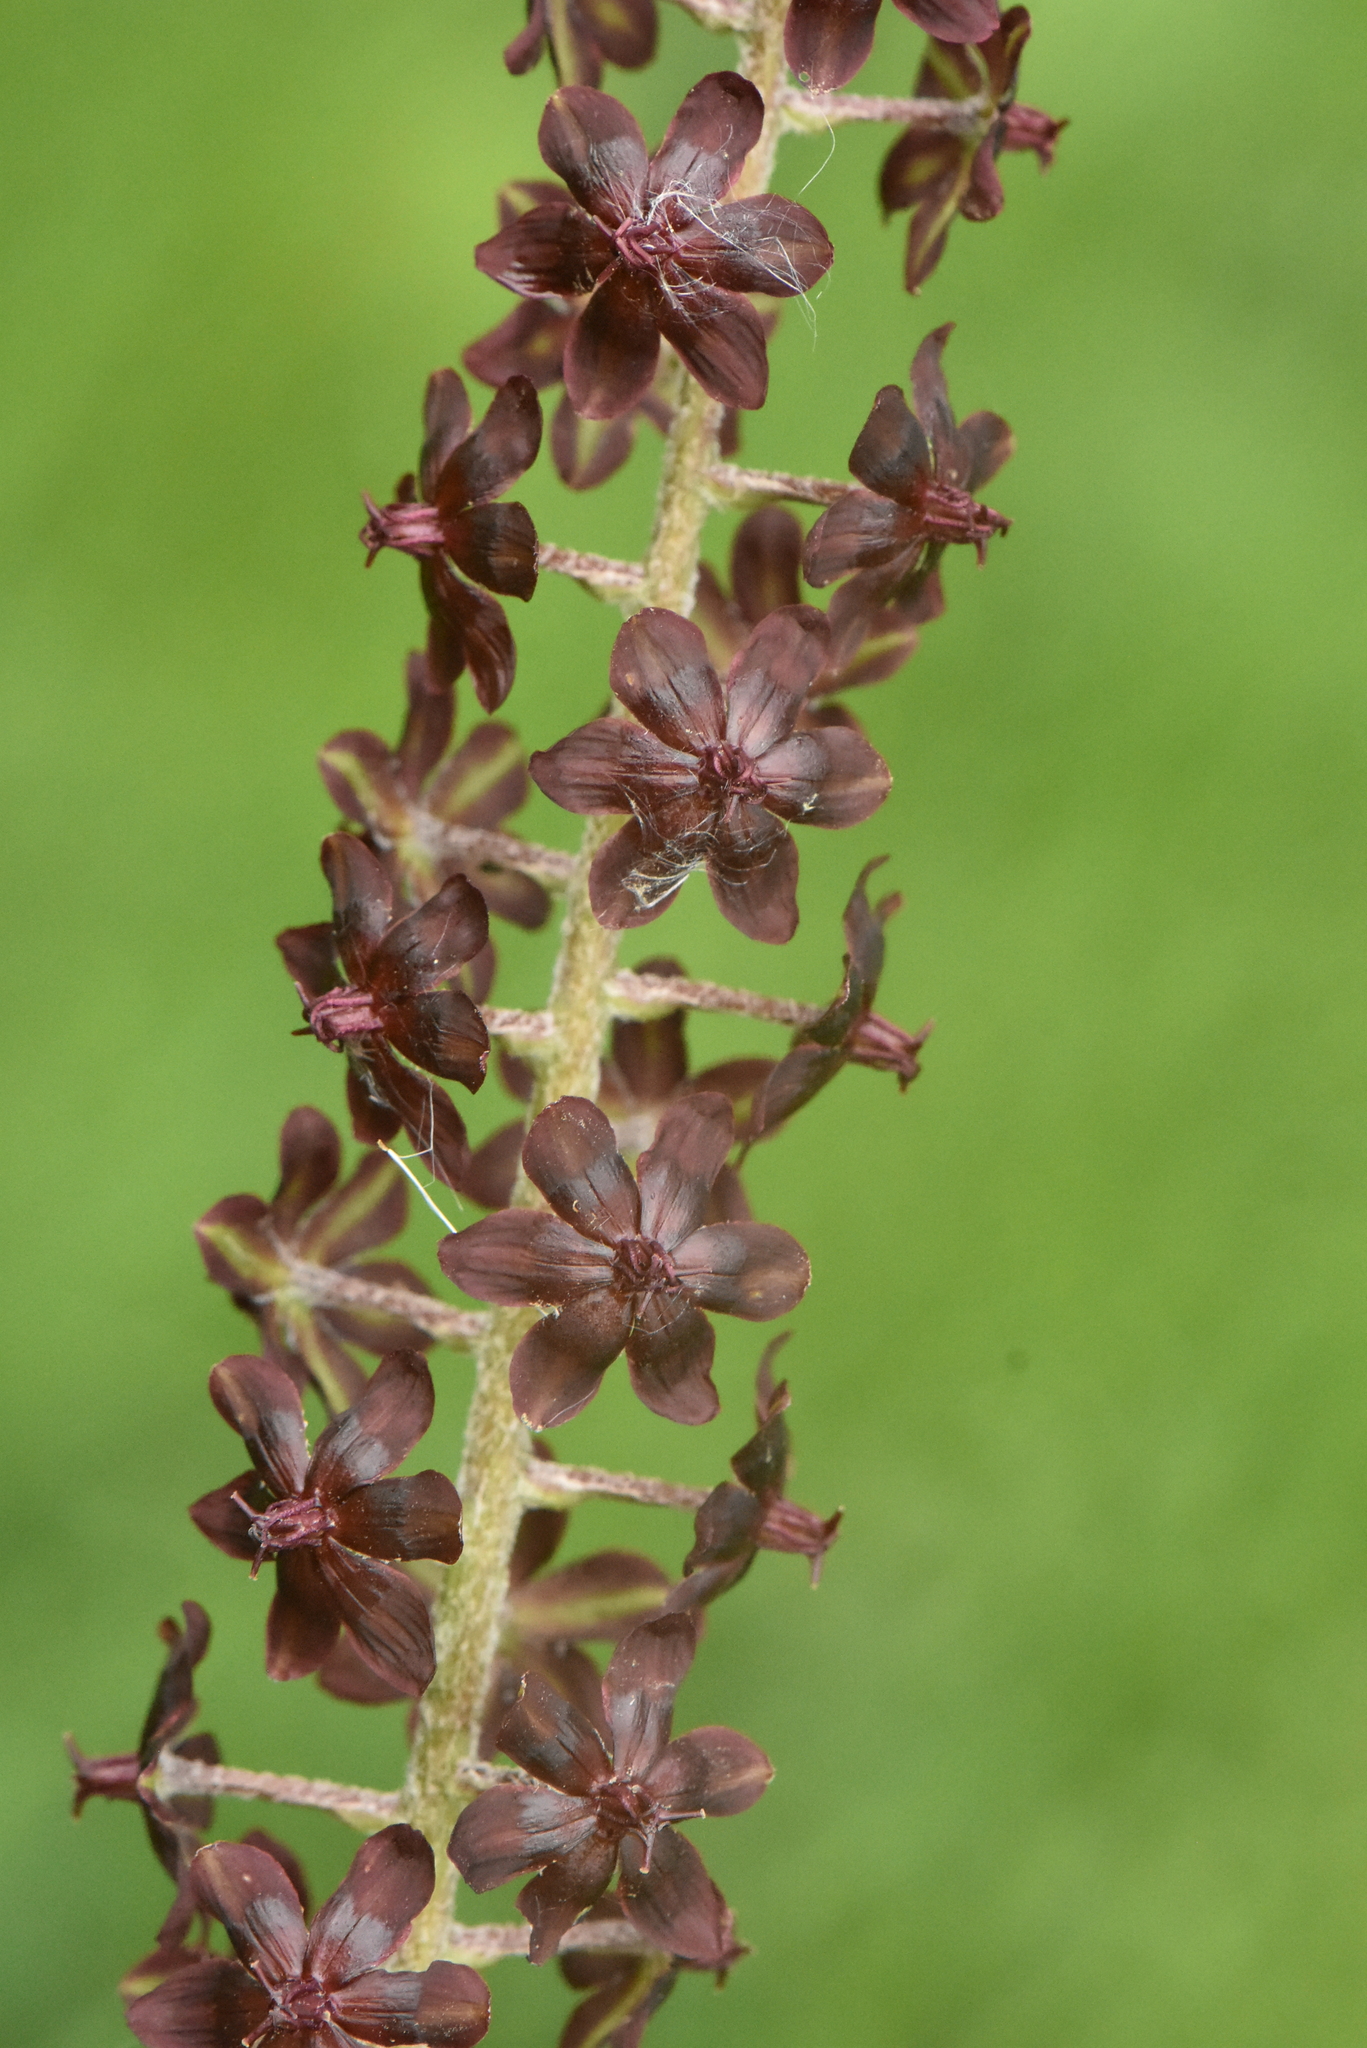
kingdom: Plantae
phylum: Tracheophyta
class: Liliopsida
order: Liliales
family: Melanthiaceae
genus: Veratrum
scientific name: Veratrum nigrum
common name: Black veratrum
